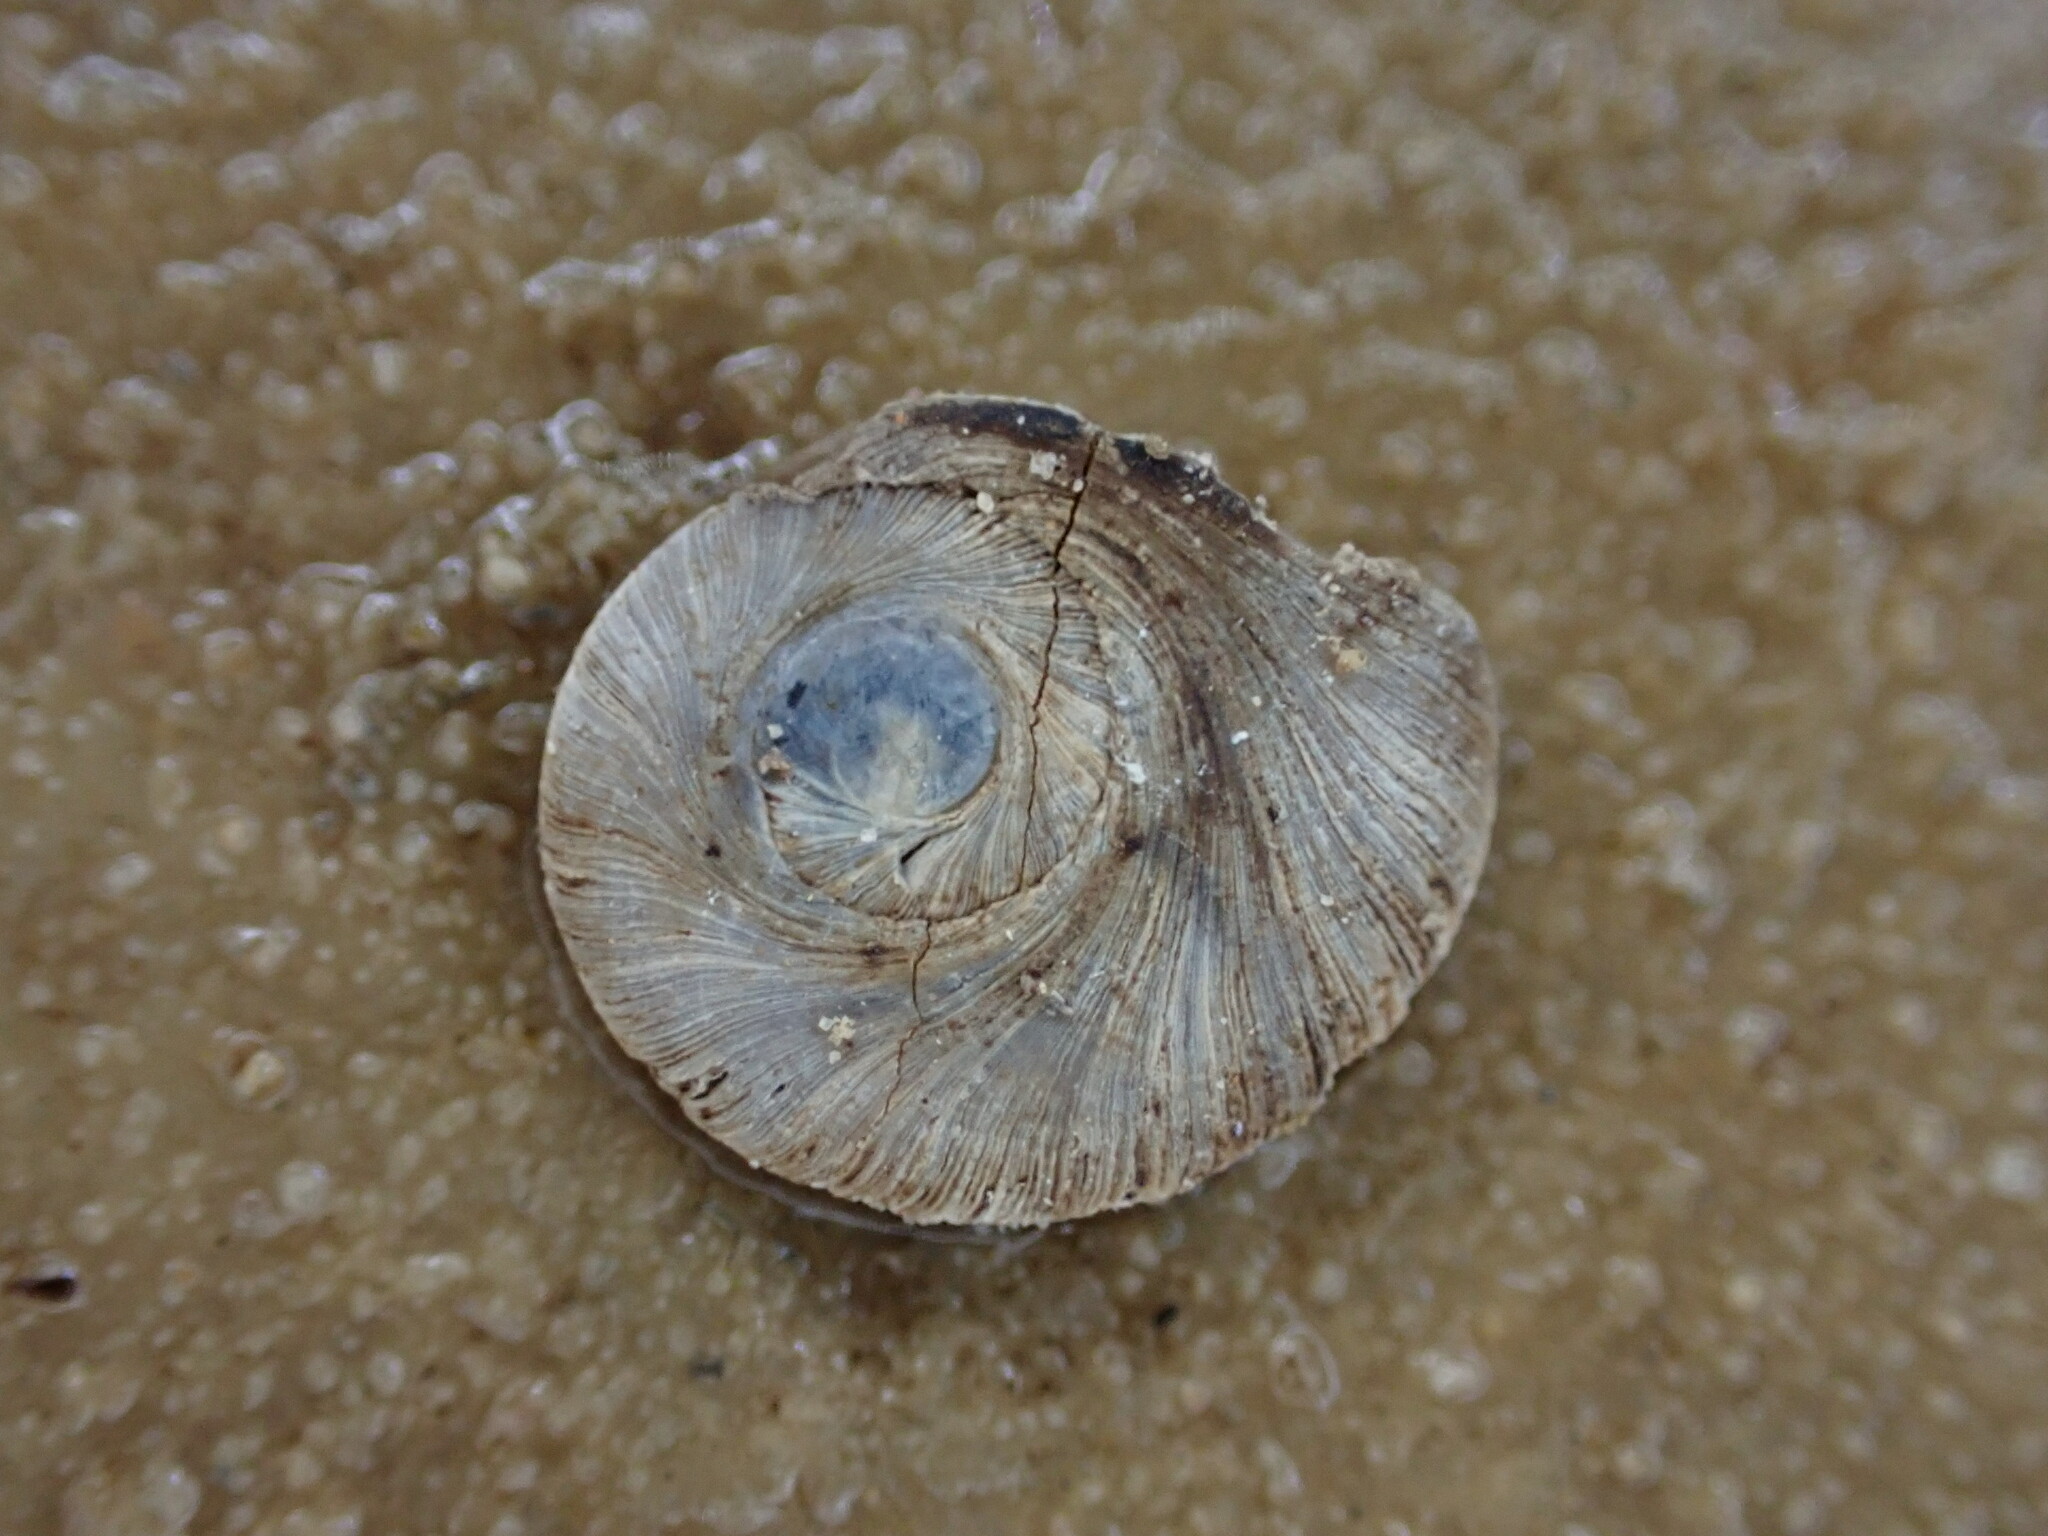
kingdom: Animalia
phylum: Mollusca
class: Gastropoda
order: Littorinimorpha
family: Pomatiidae
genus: Pomatias
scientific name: Pomatias elegans
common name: Red-mouthed snail
